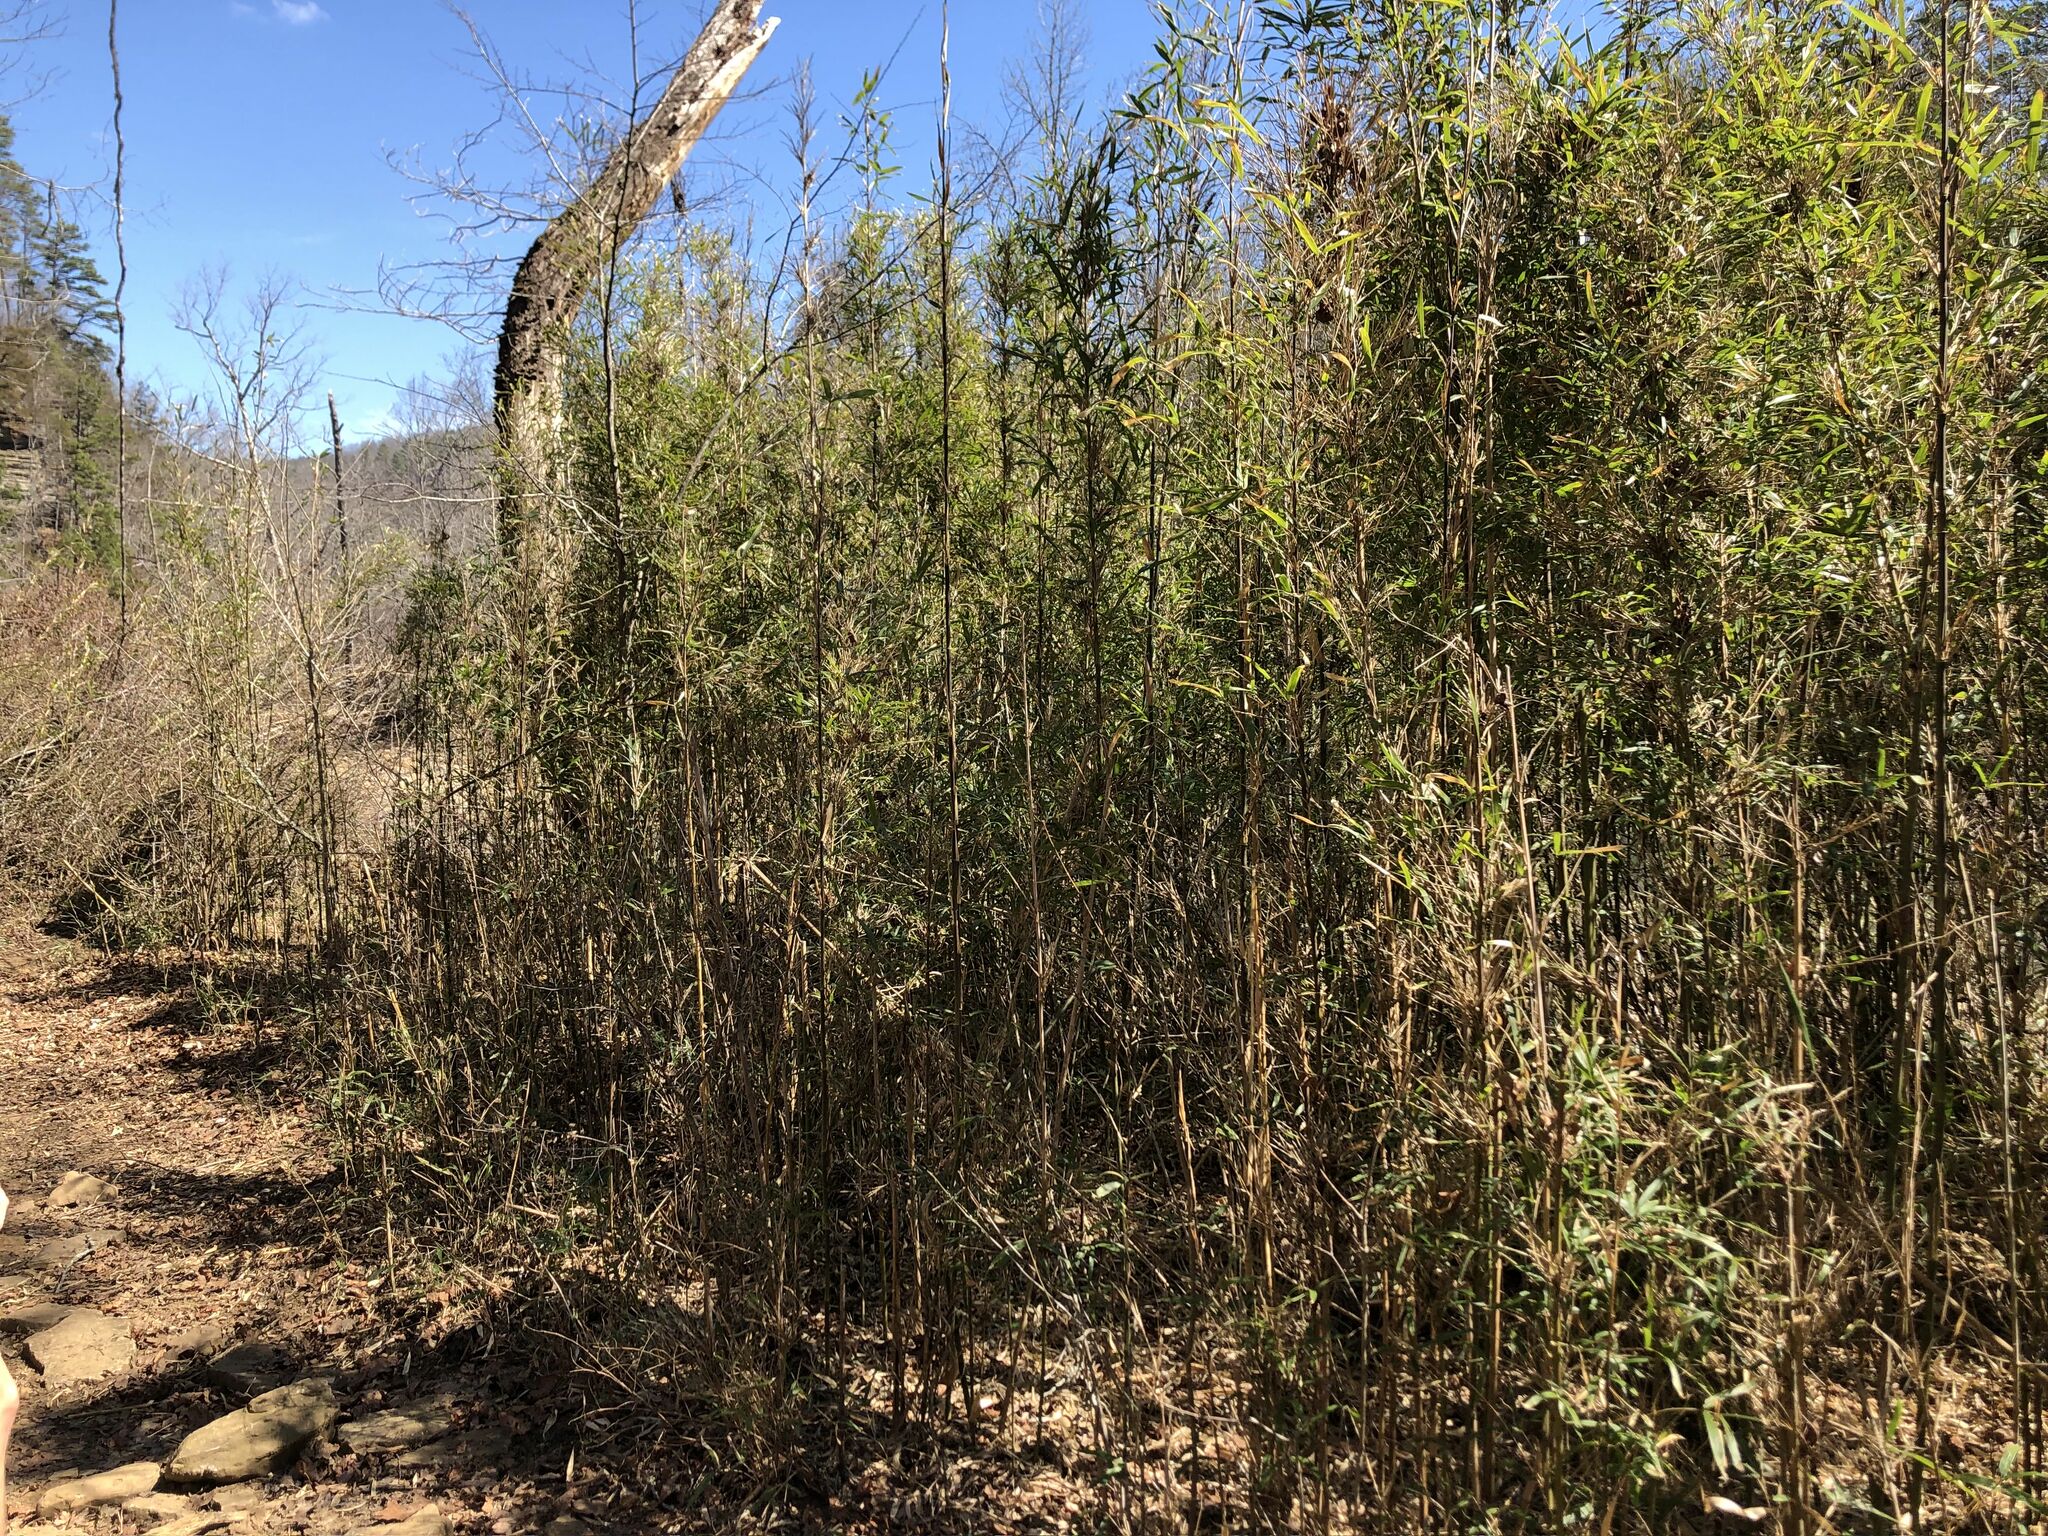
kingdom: Plantae
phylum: Tracheophyta
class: Liliopsida
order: Poales
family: Poaceae
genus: Arundinaria
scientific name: Arundinaria gigantea
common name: Giant cane
